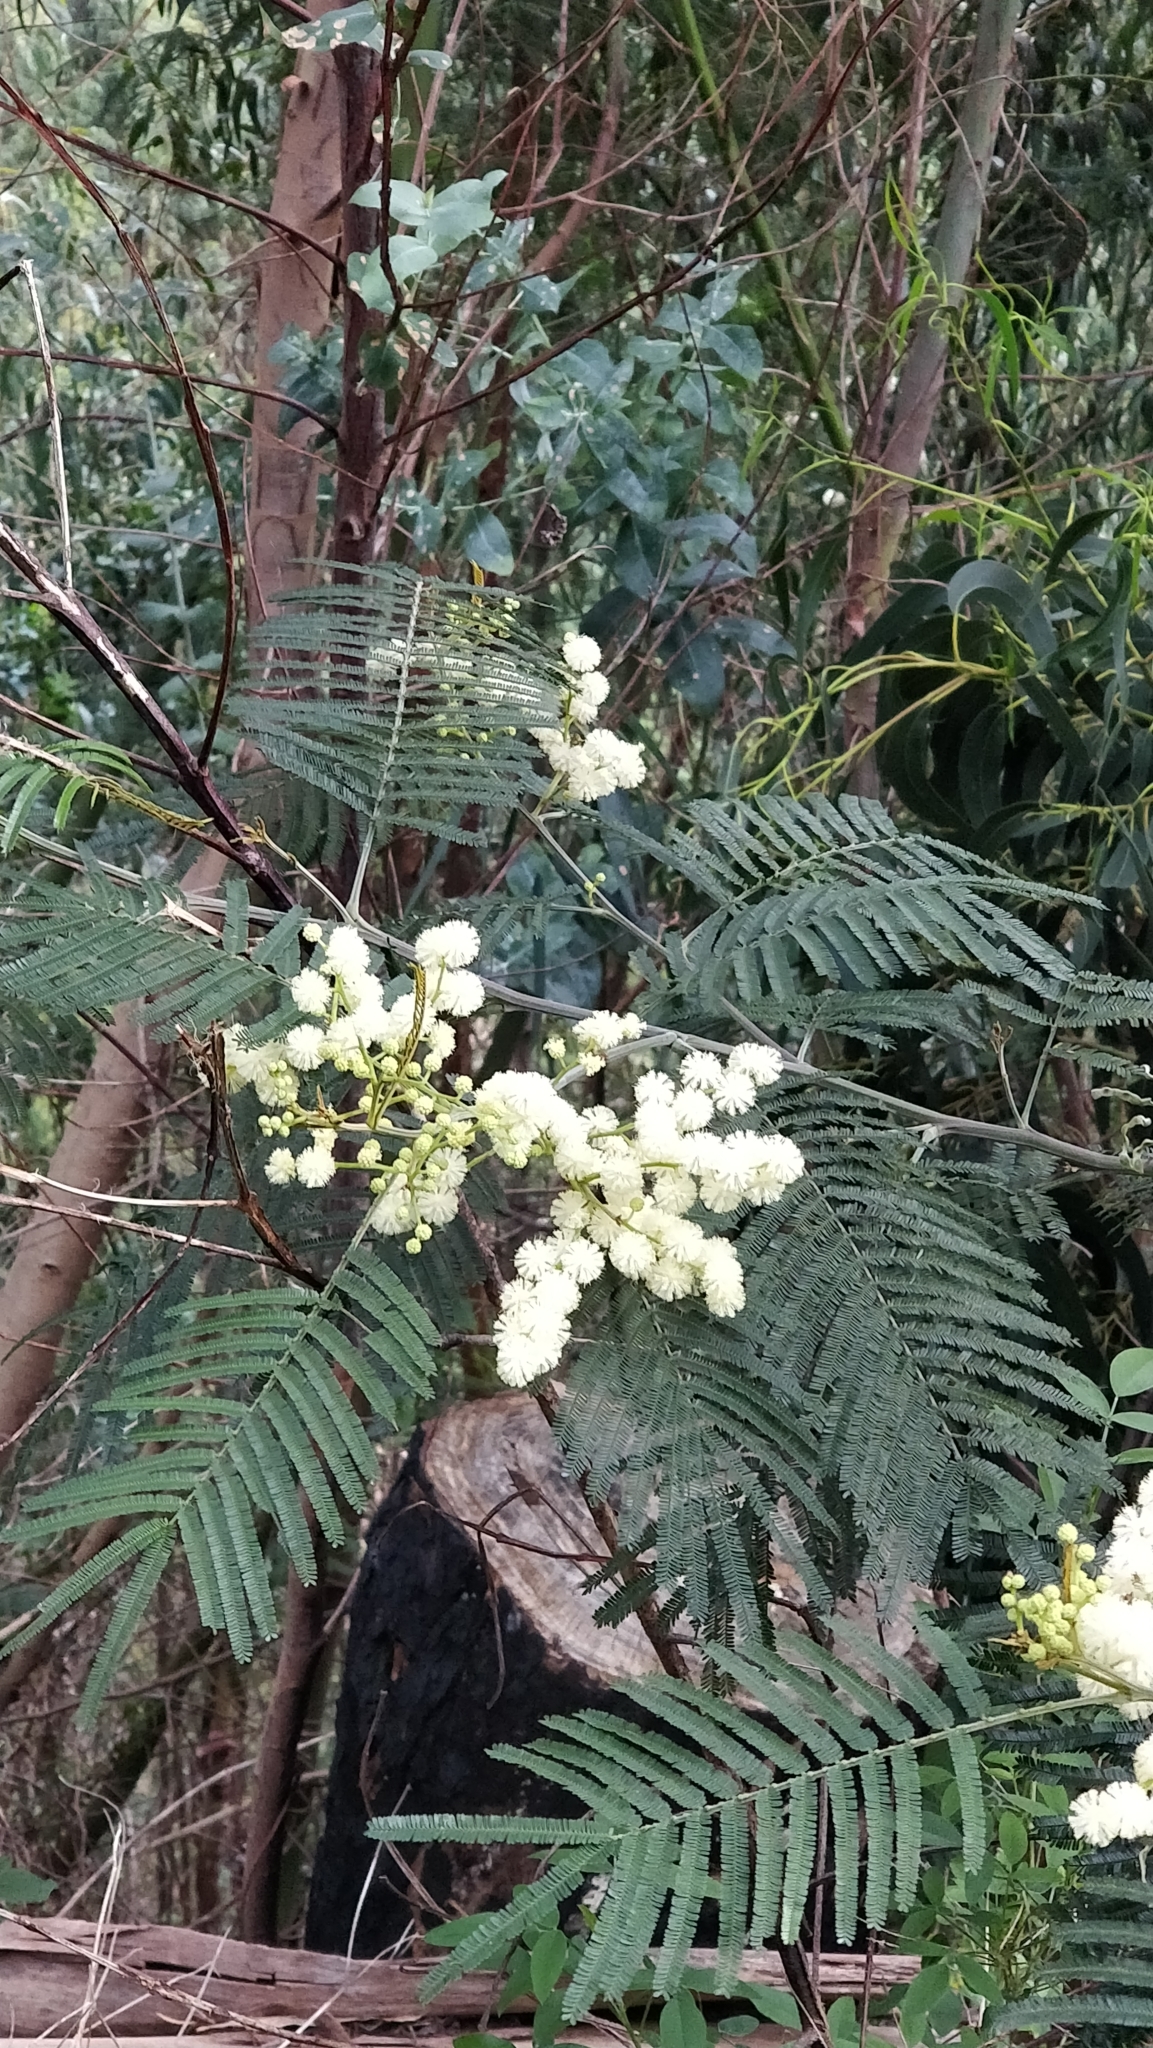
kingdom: Plantae
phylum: Tracheophyta
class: Magnoliopsida
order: Fabales
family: Fabaceae
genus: Acacia
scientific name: Acacia mearnsii
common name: Black wattle
